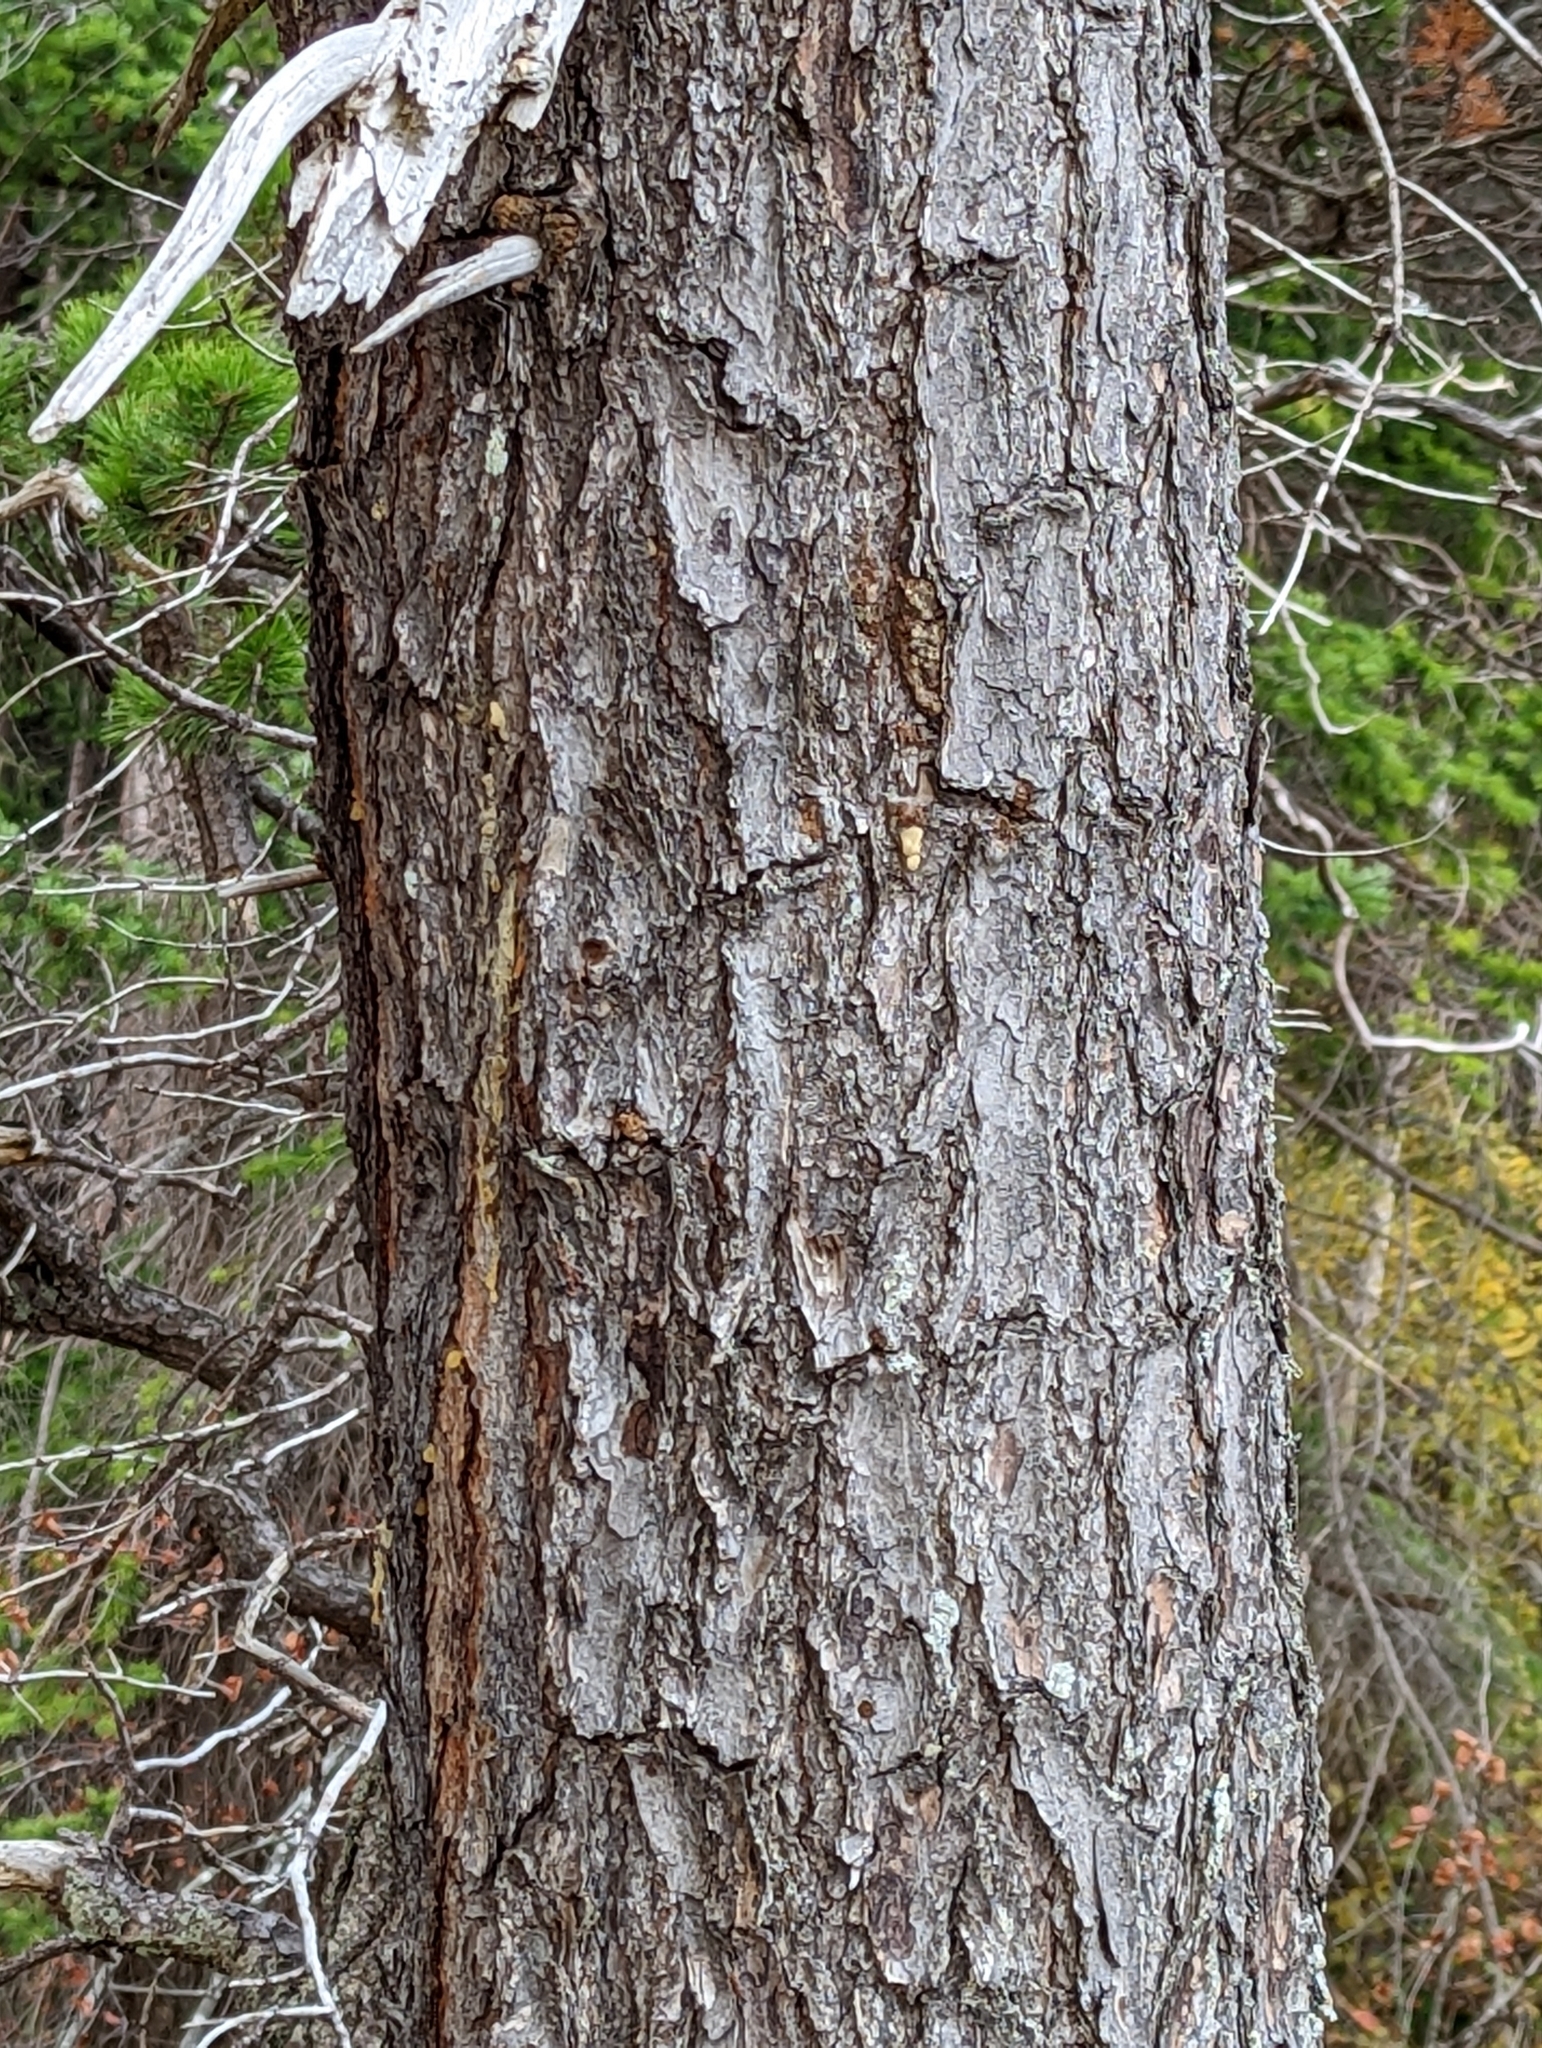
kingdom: Plantae
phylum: Tracheophyta
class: Pinopsida
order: Pinales
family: Pinaceae
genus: Pinus
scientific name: Pinus contorta
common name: Lodgepole pine
